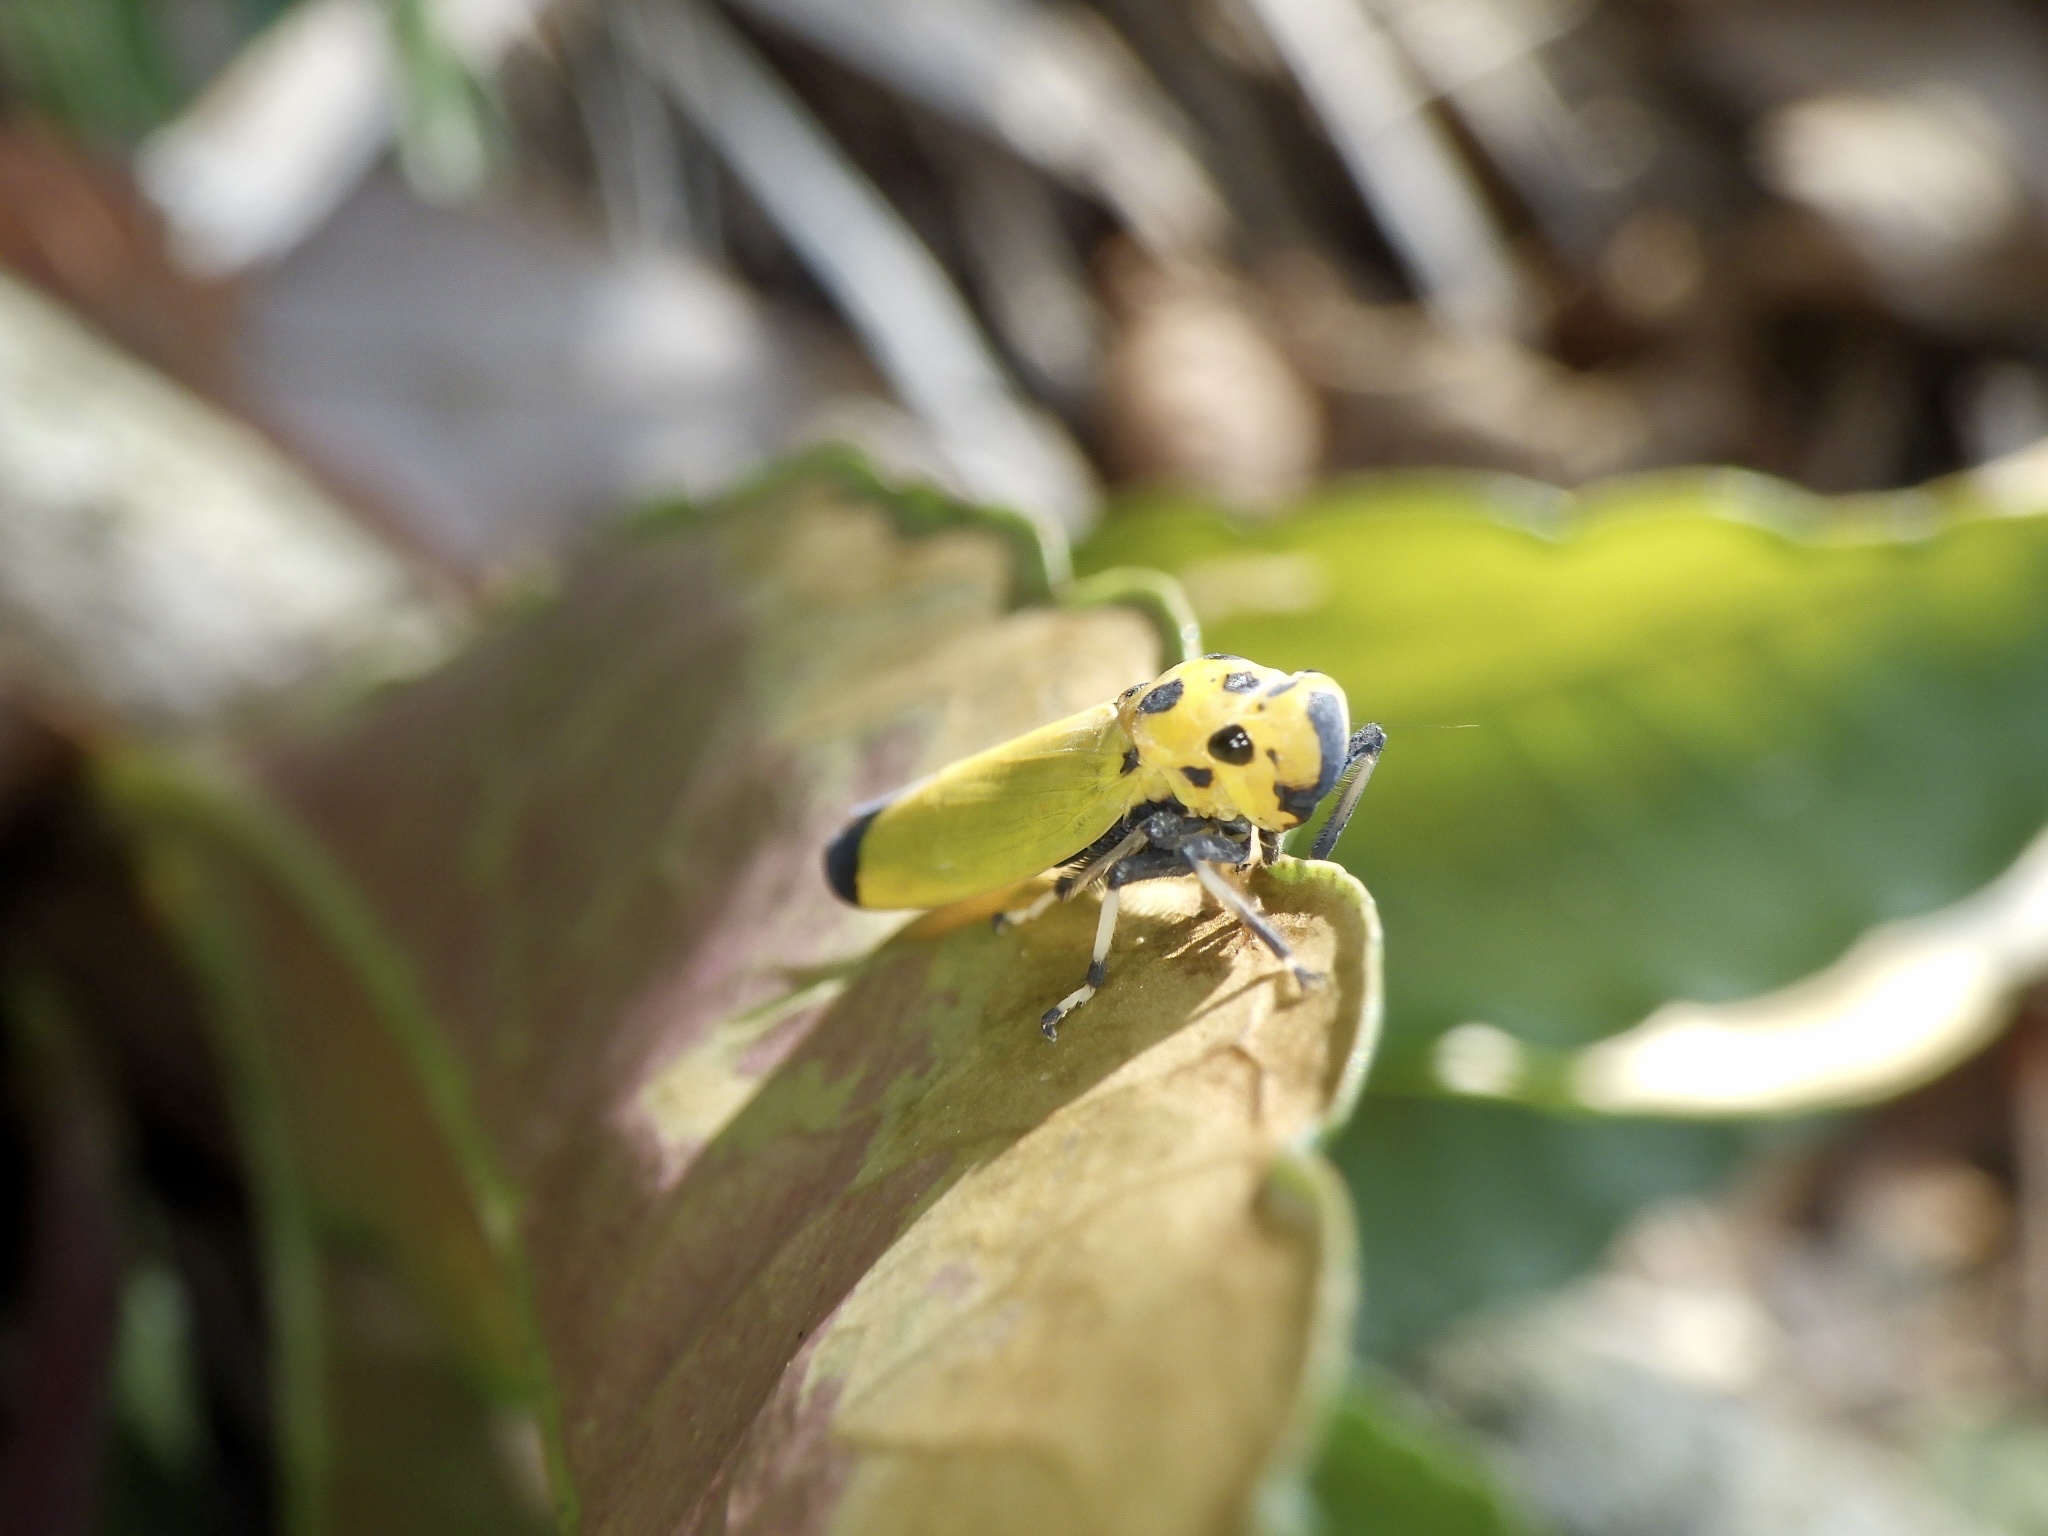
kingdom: Animalia
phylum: Arthropoda
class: Insecta
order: Hemiptera
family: Cicadellidae
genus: Bothrogonia
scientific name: Bothrogonia ferruginea
